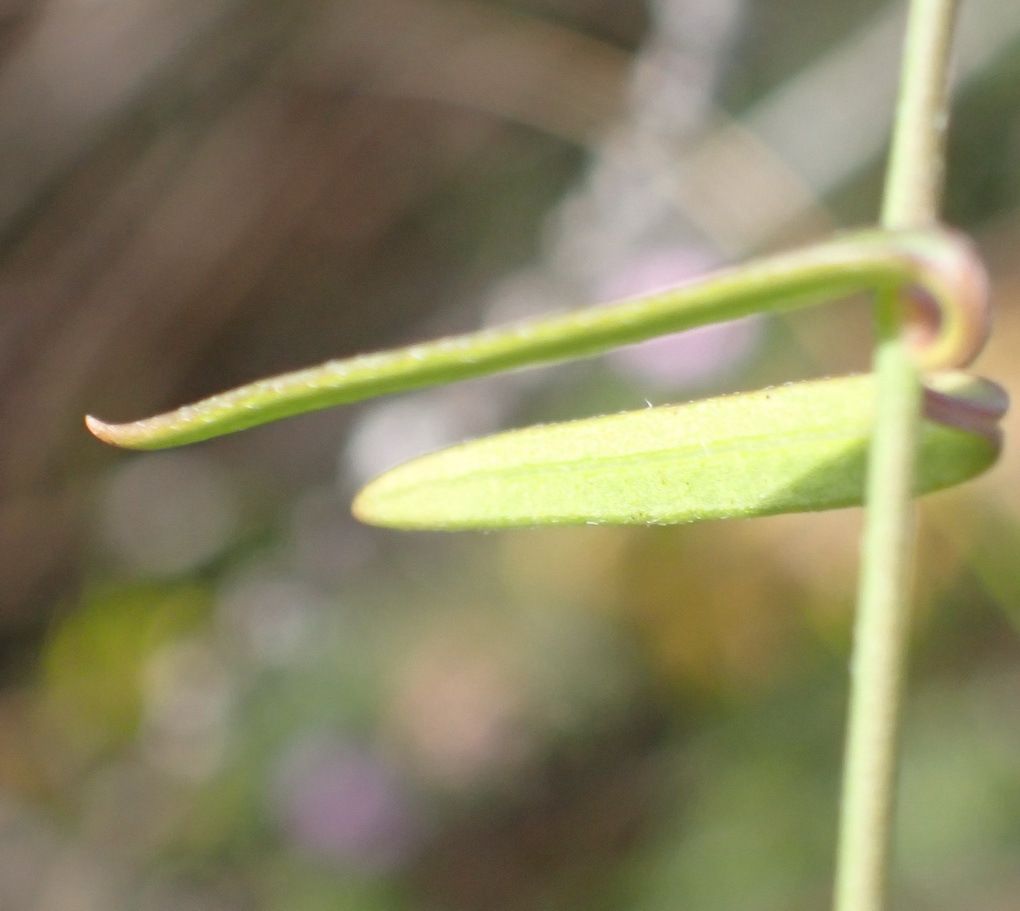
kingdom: Plantae
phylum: Tracheophyta
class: Magnoliopsida
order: Gentianales
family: Apocynaceae
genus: Astephanus
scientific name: Astephanus triflorus
